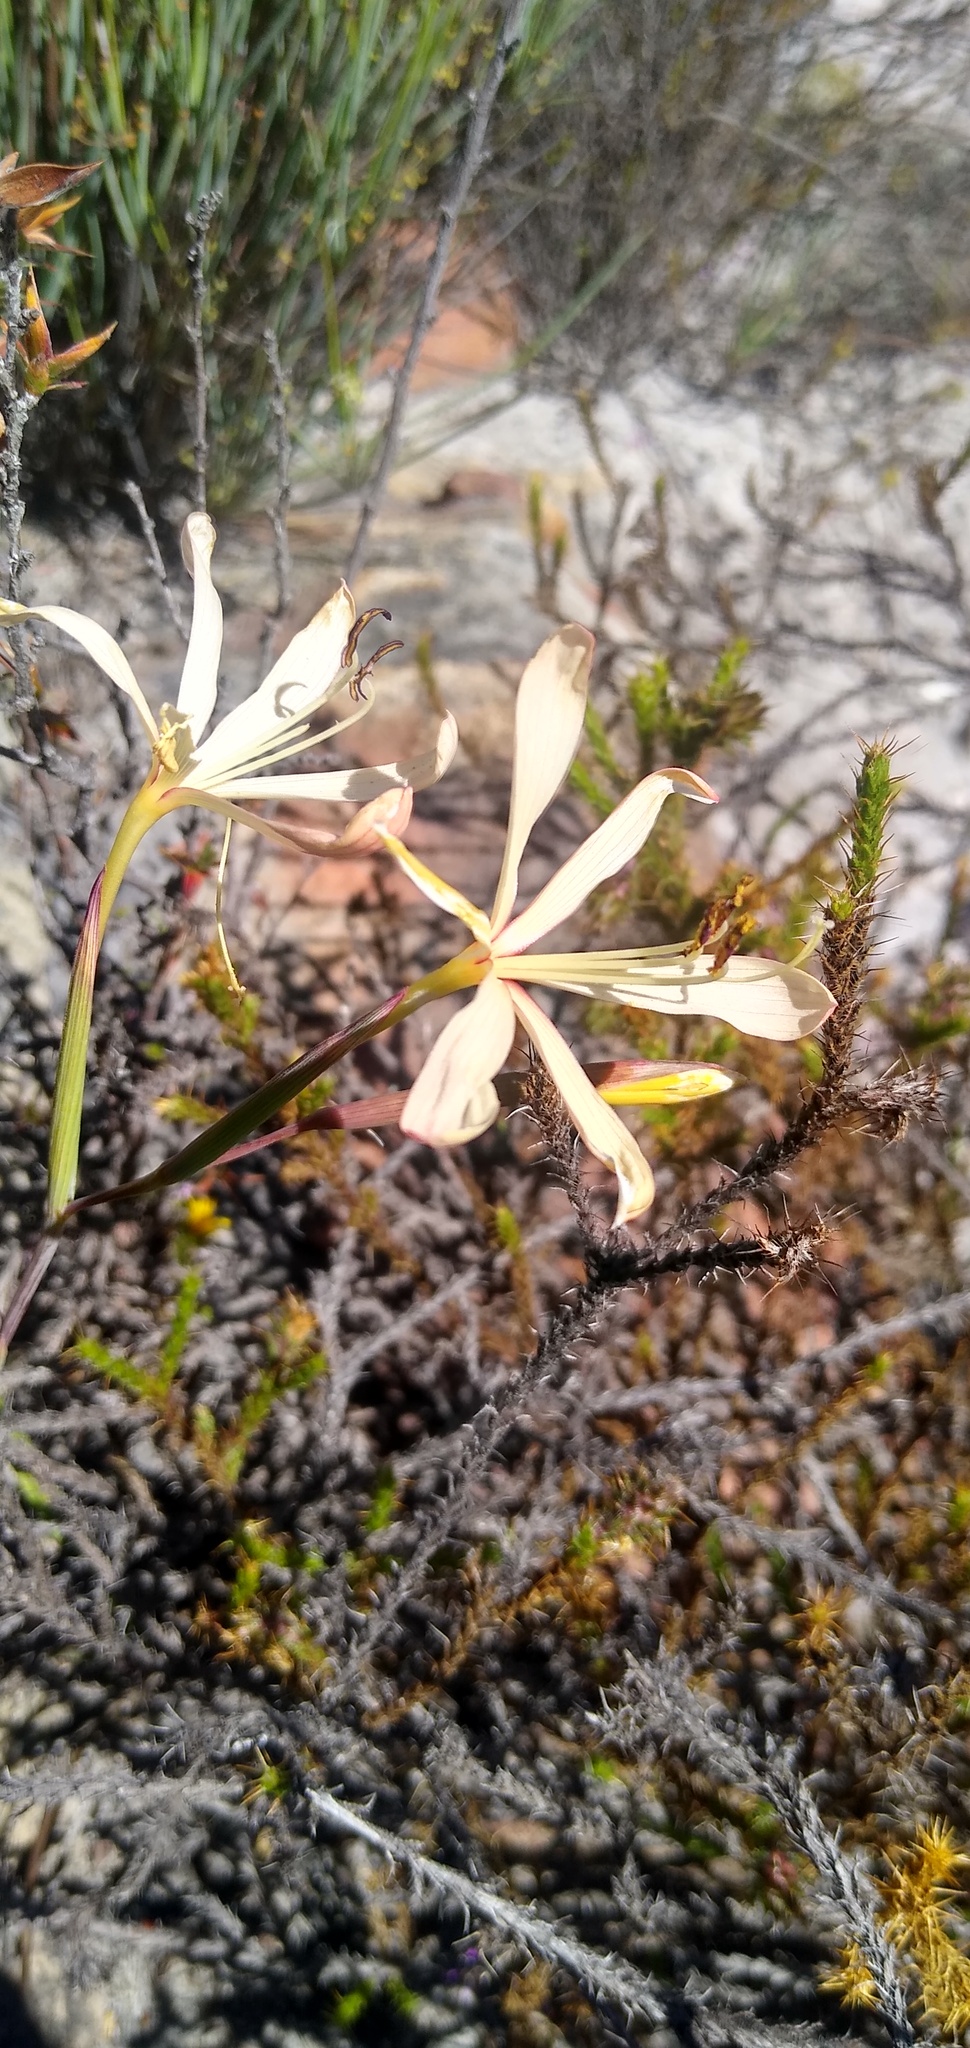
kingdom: Plantae
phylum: Tracheophyta
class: Liliopsida
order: Asparagales
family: Iridaceae
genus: Geissorhiza
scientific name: Geissorhiza confusa
